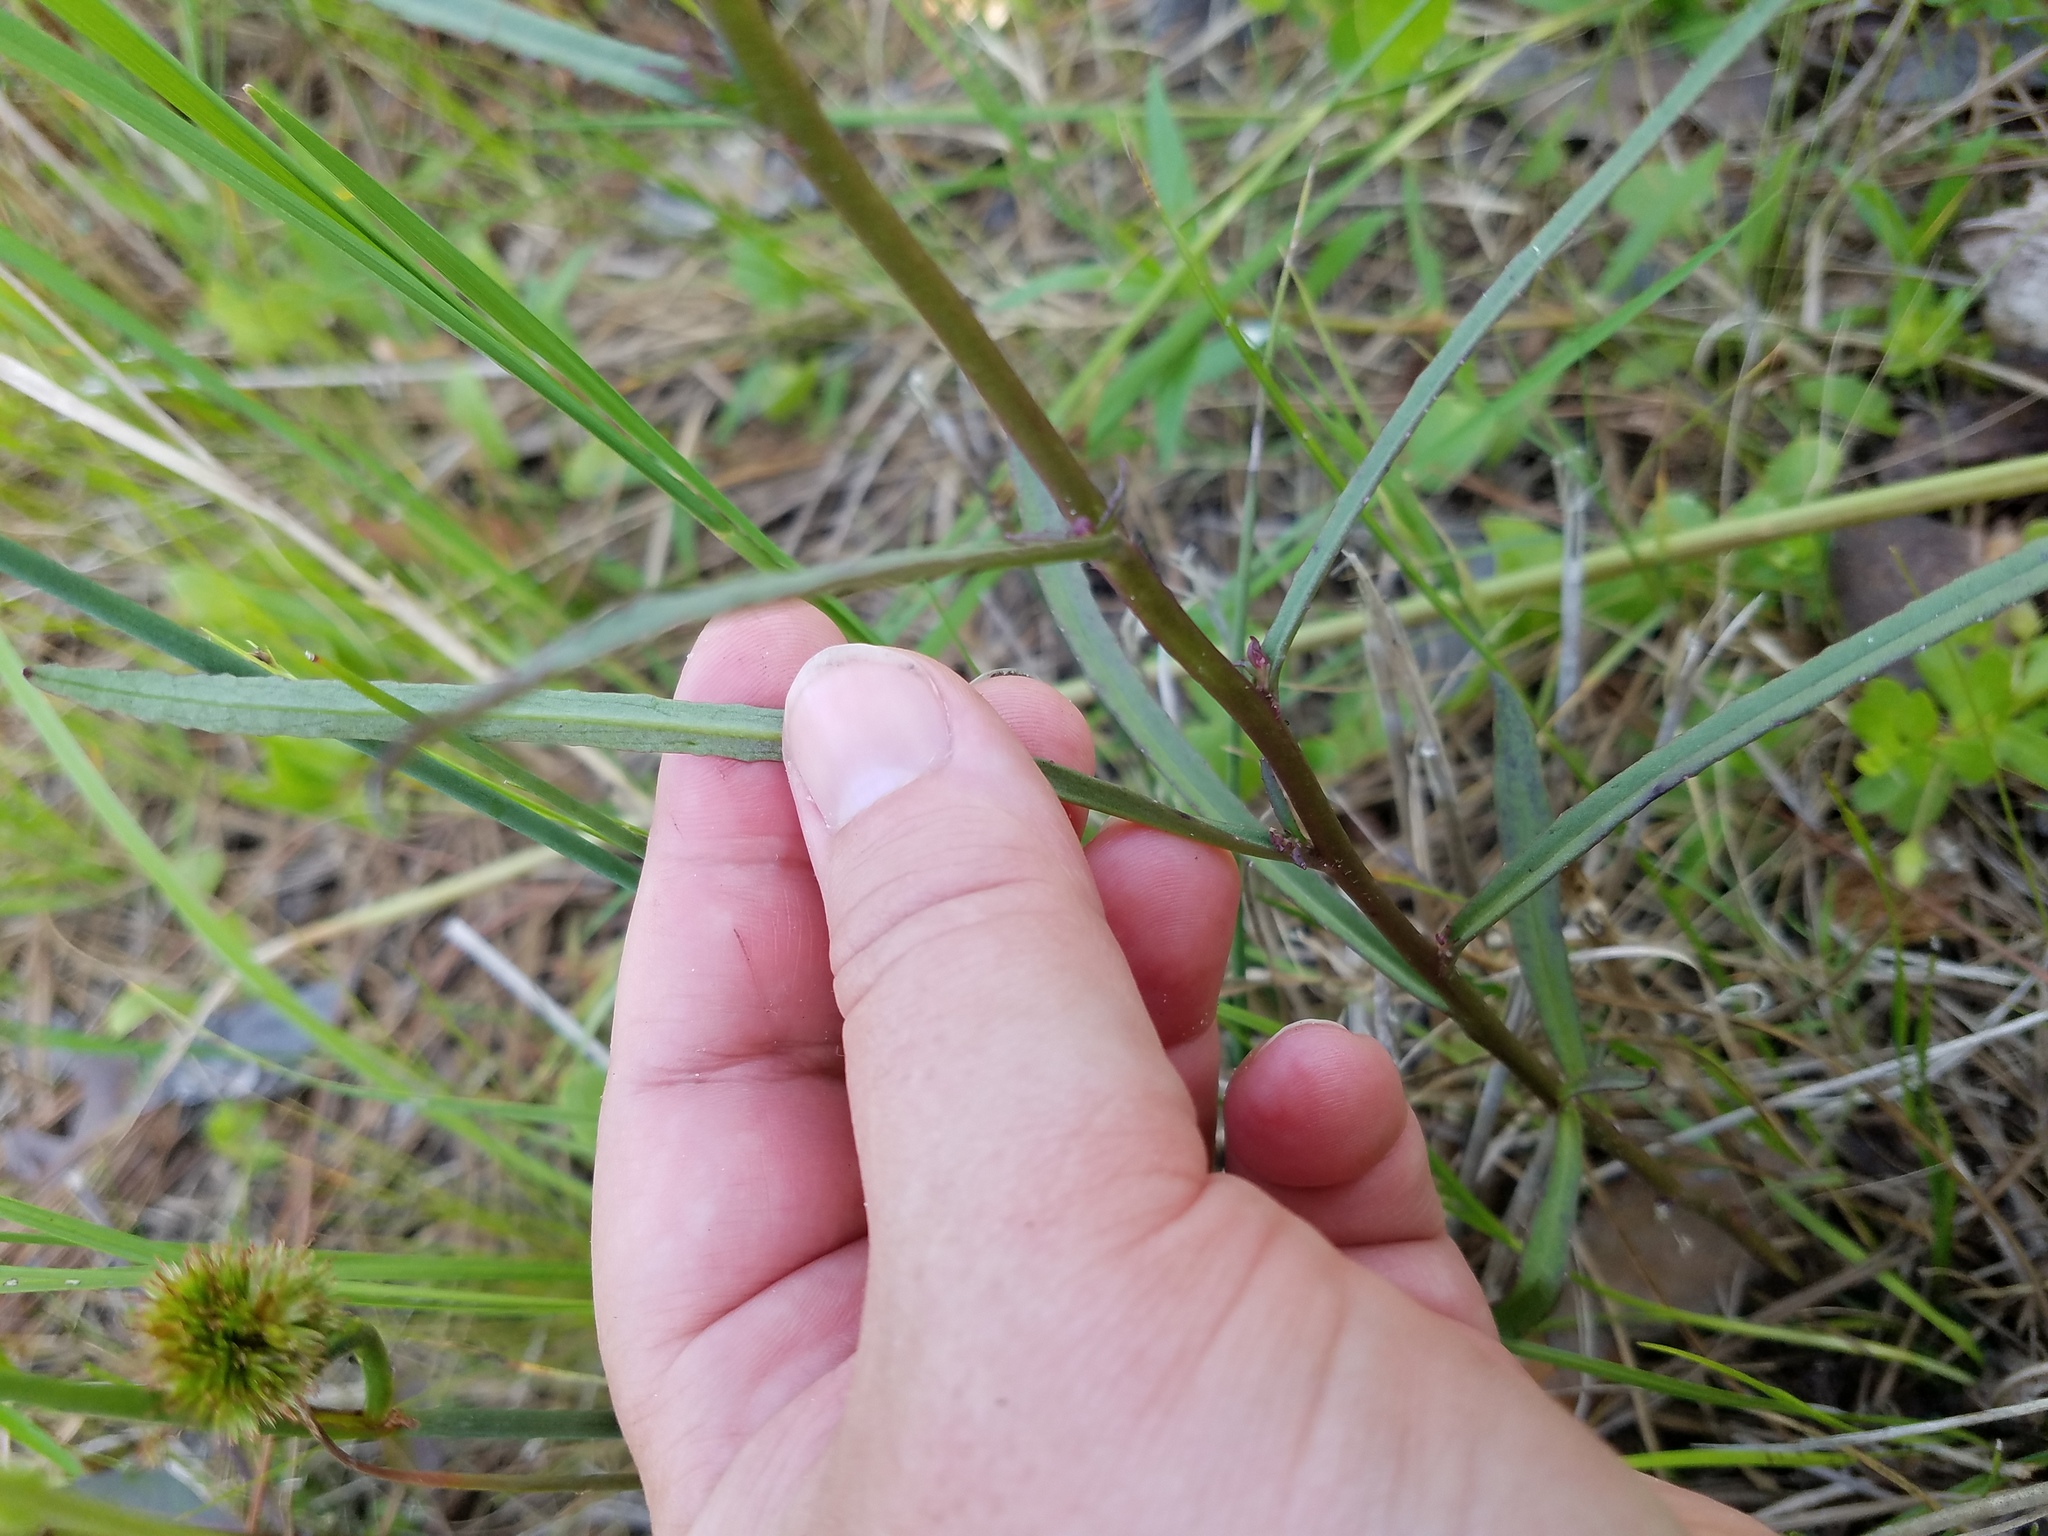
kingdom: Plantae
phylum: Tracheophyta
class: Magnoliopsida
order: Asterales
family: Campanulaceae
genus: Lobelia
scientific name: Lobelia glandulosa
